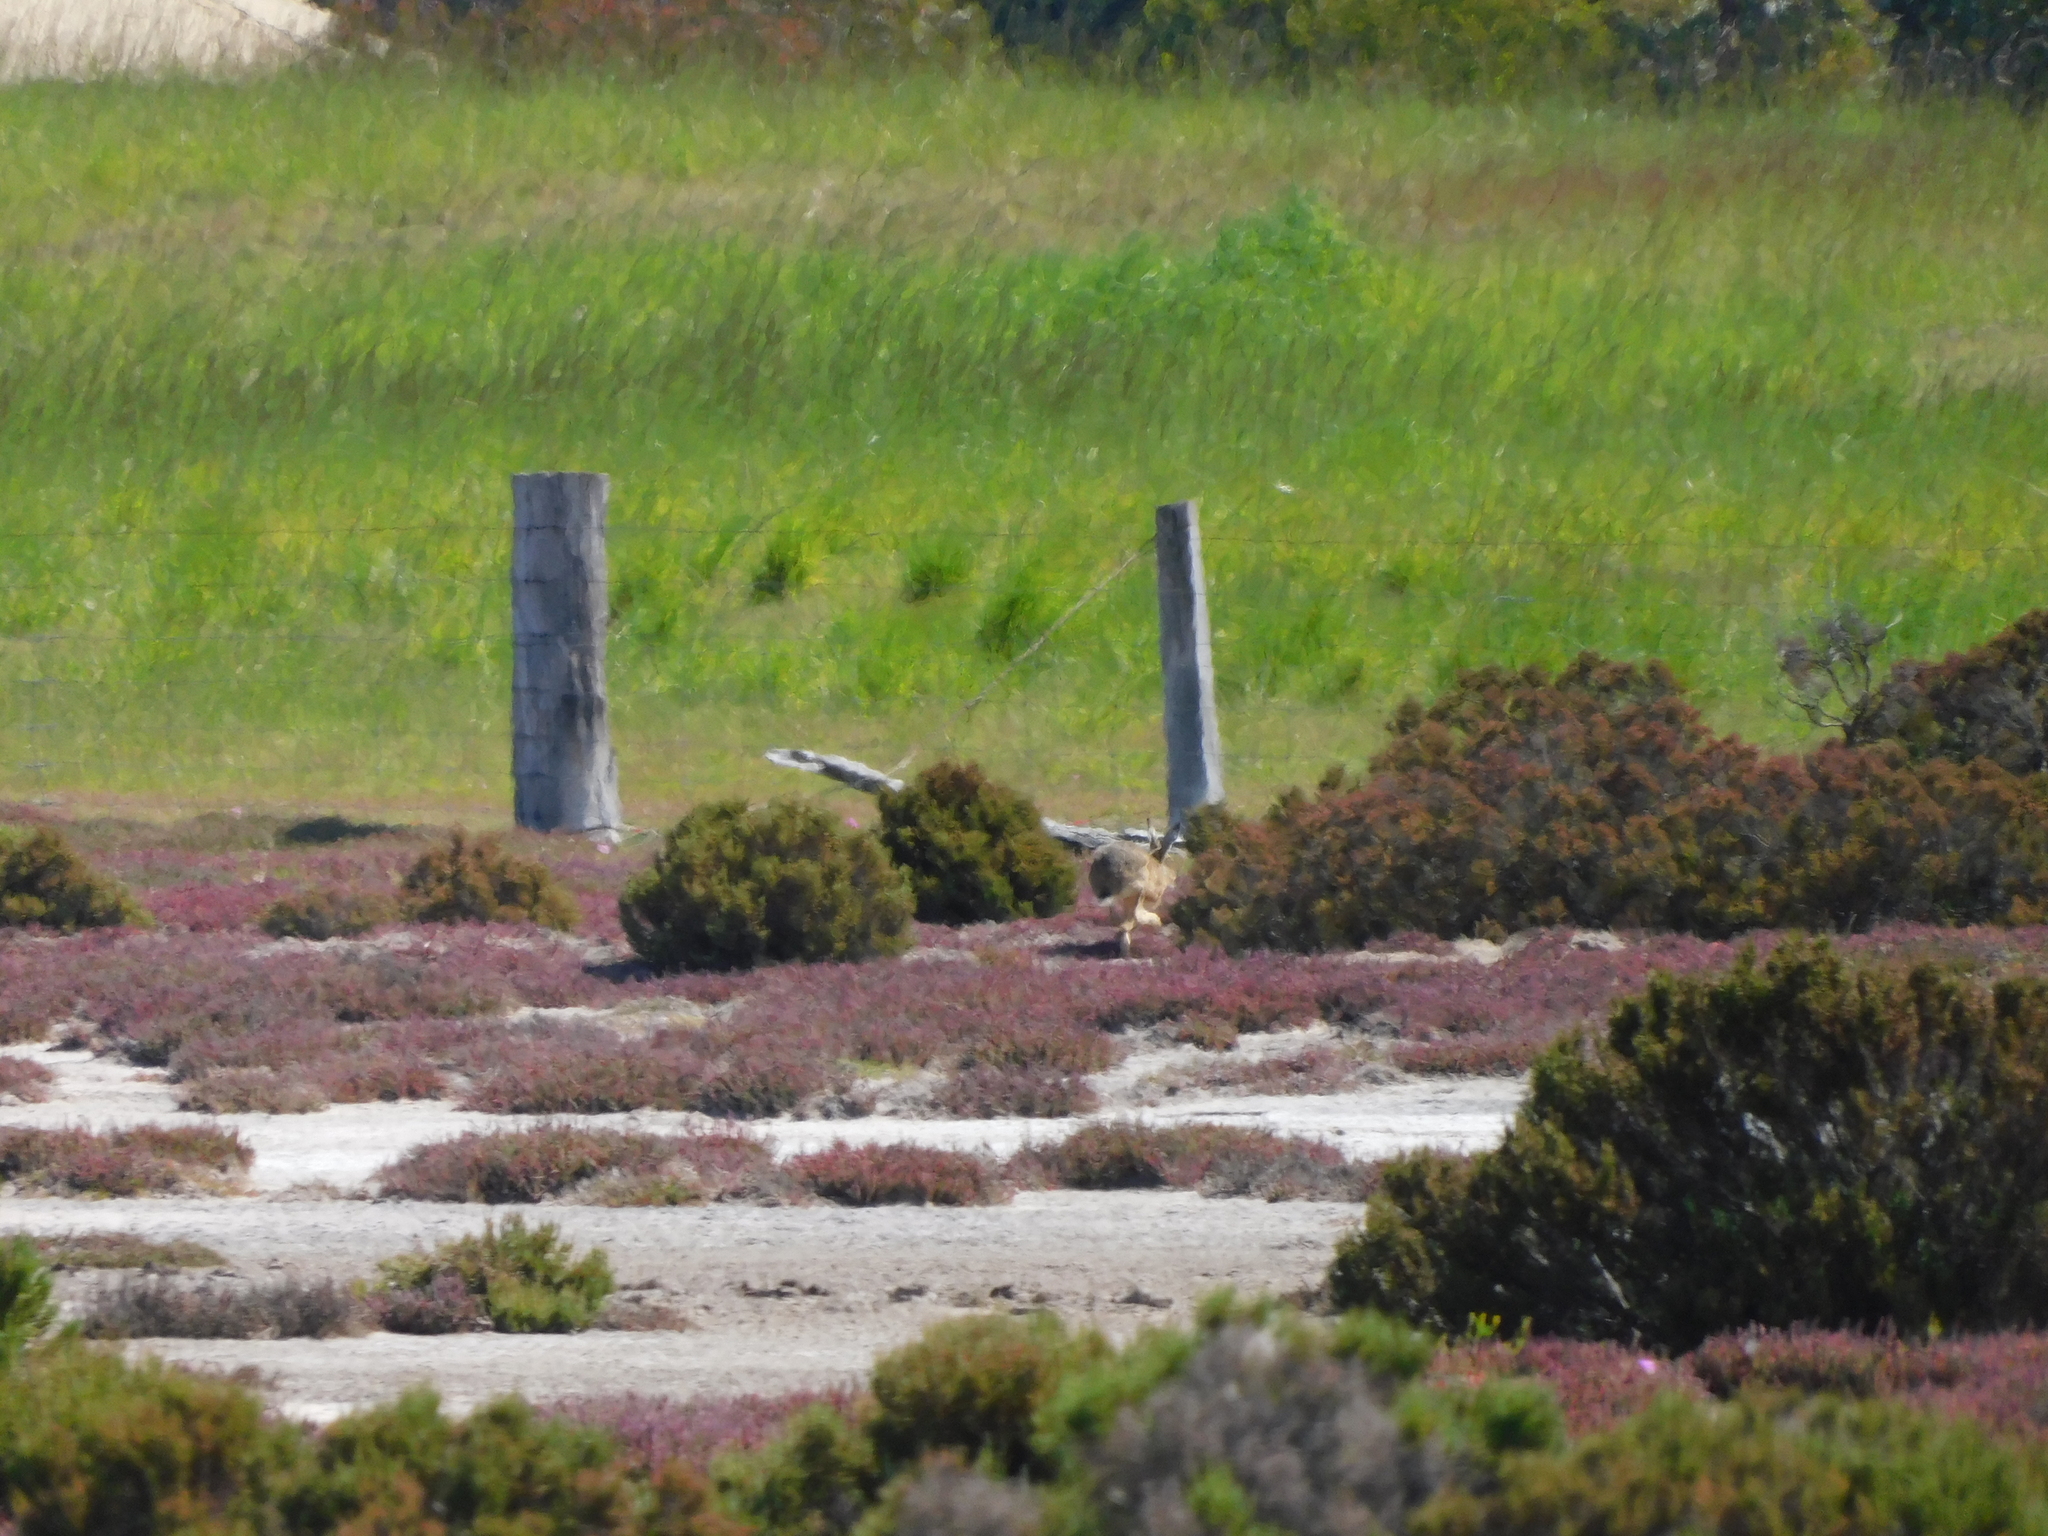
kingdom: Animalia
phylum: Chordata
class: Mammalia
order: Lagomorpha
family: Leporidae
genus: Lepus
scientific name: Lepus europaeus
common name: European hare
